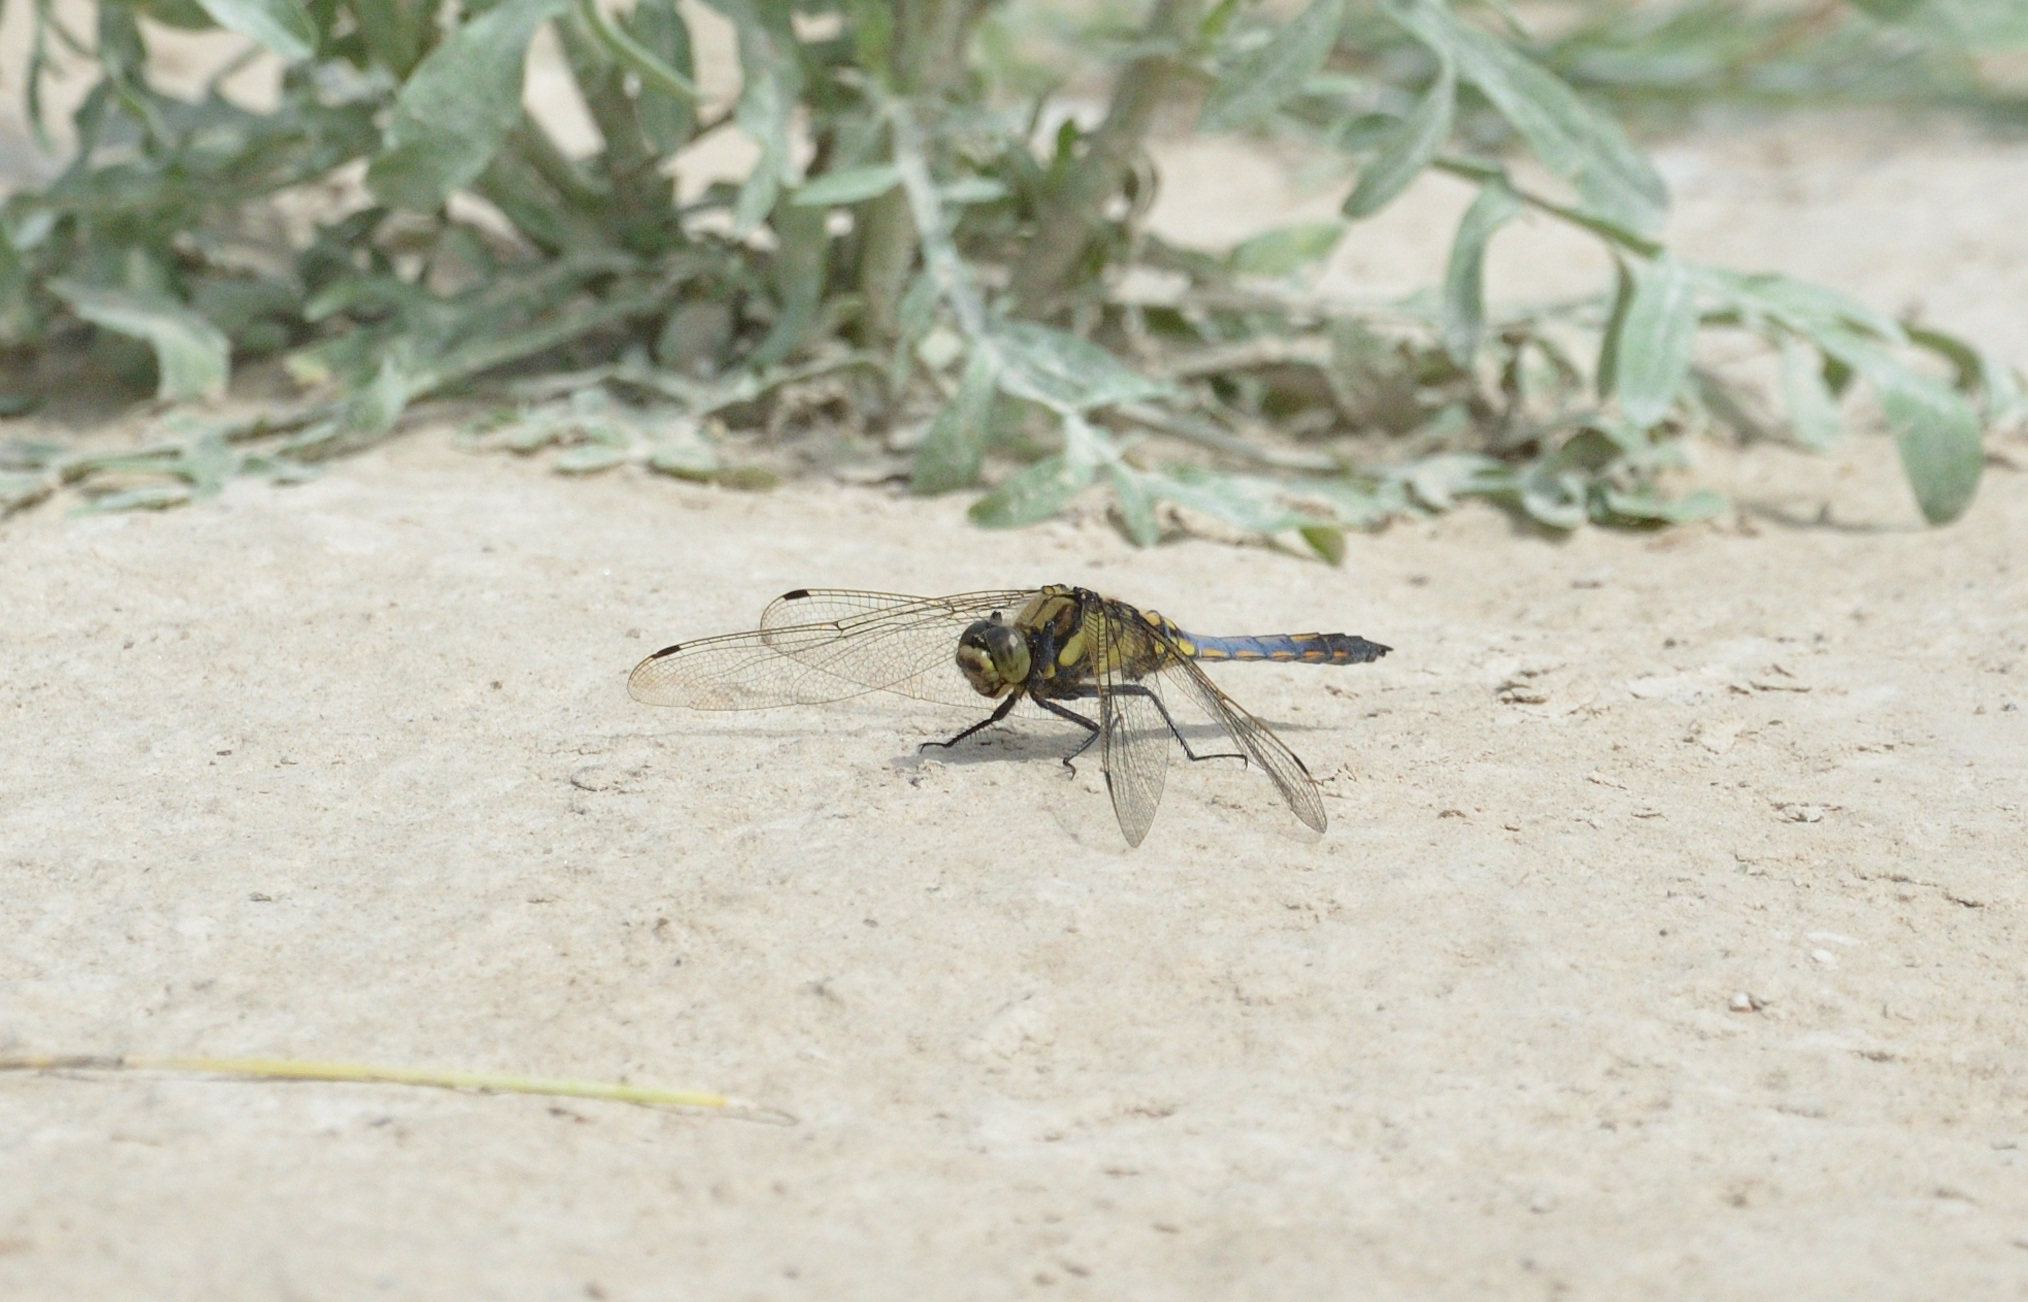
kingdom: Animalia
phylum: Arthropoda
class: Insecta
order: Odonata
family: Libellulidae
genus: Orthetrum
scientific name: Orthetrum cancellatum
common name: Black-tailed skimmer
